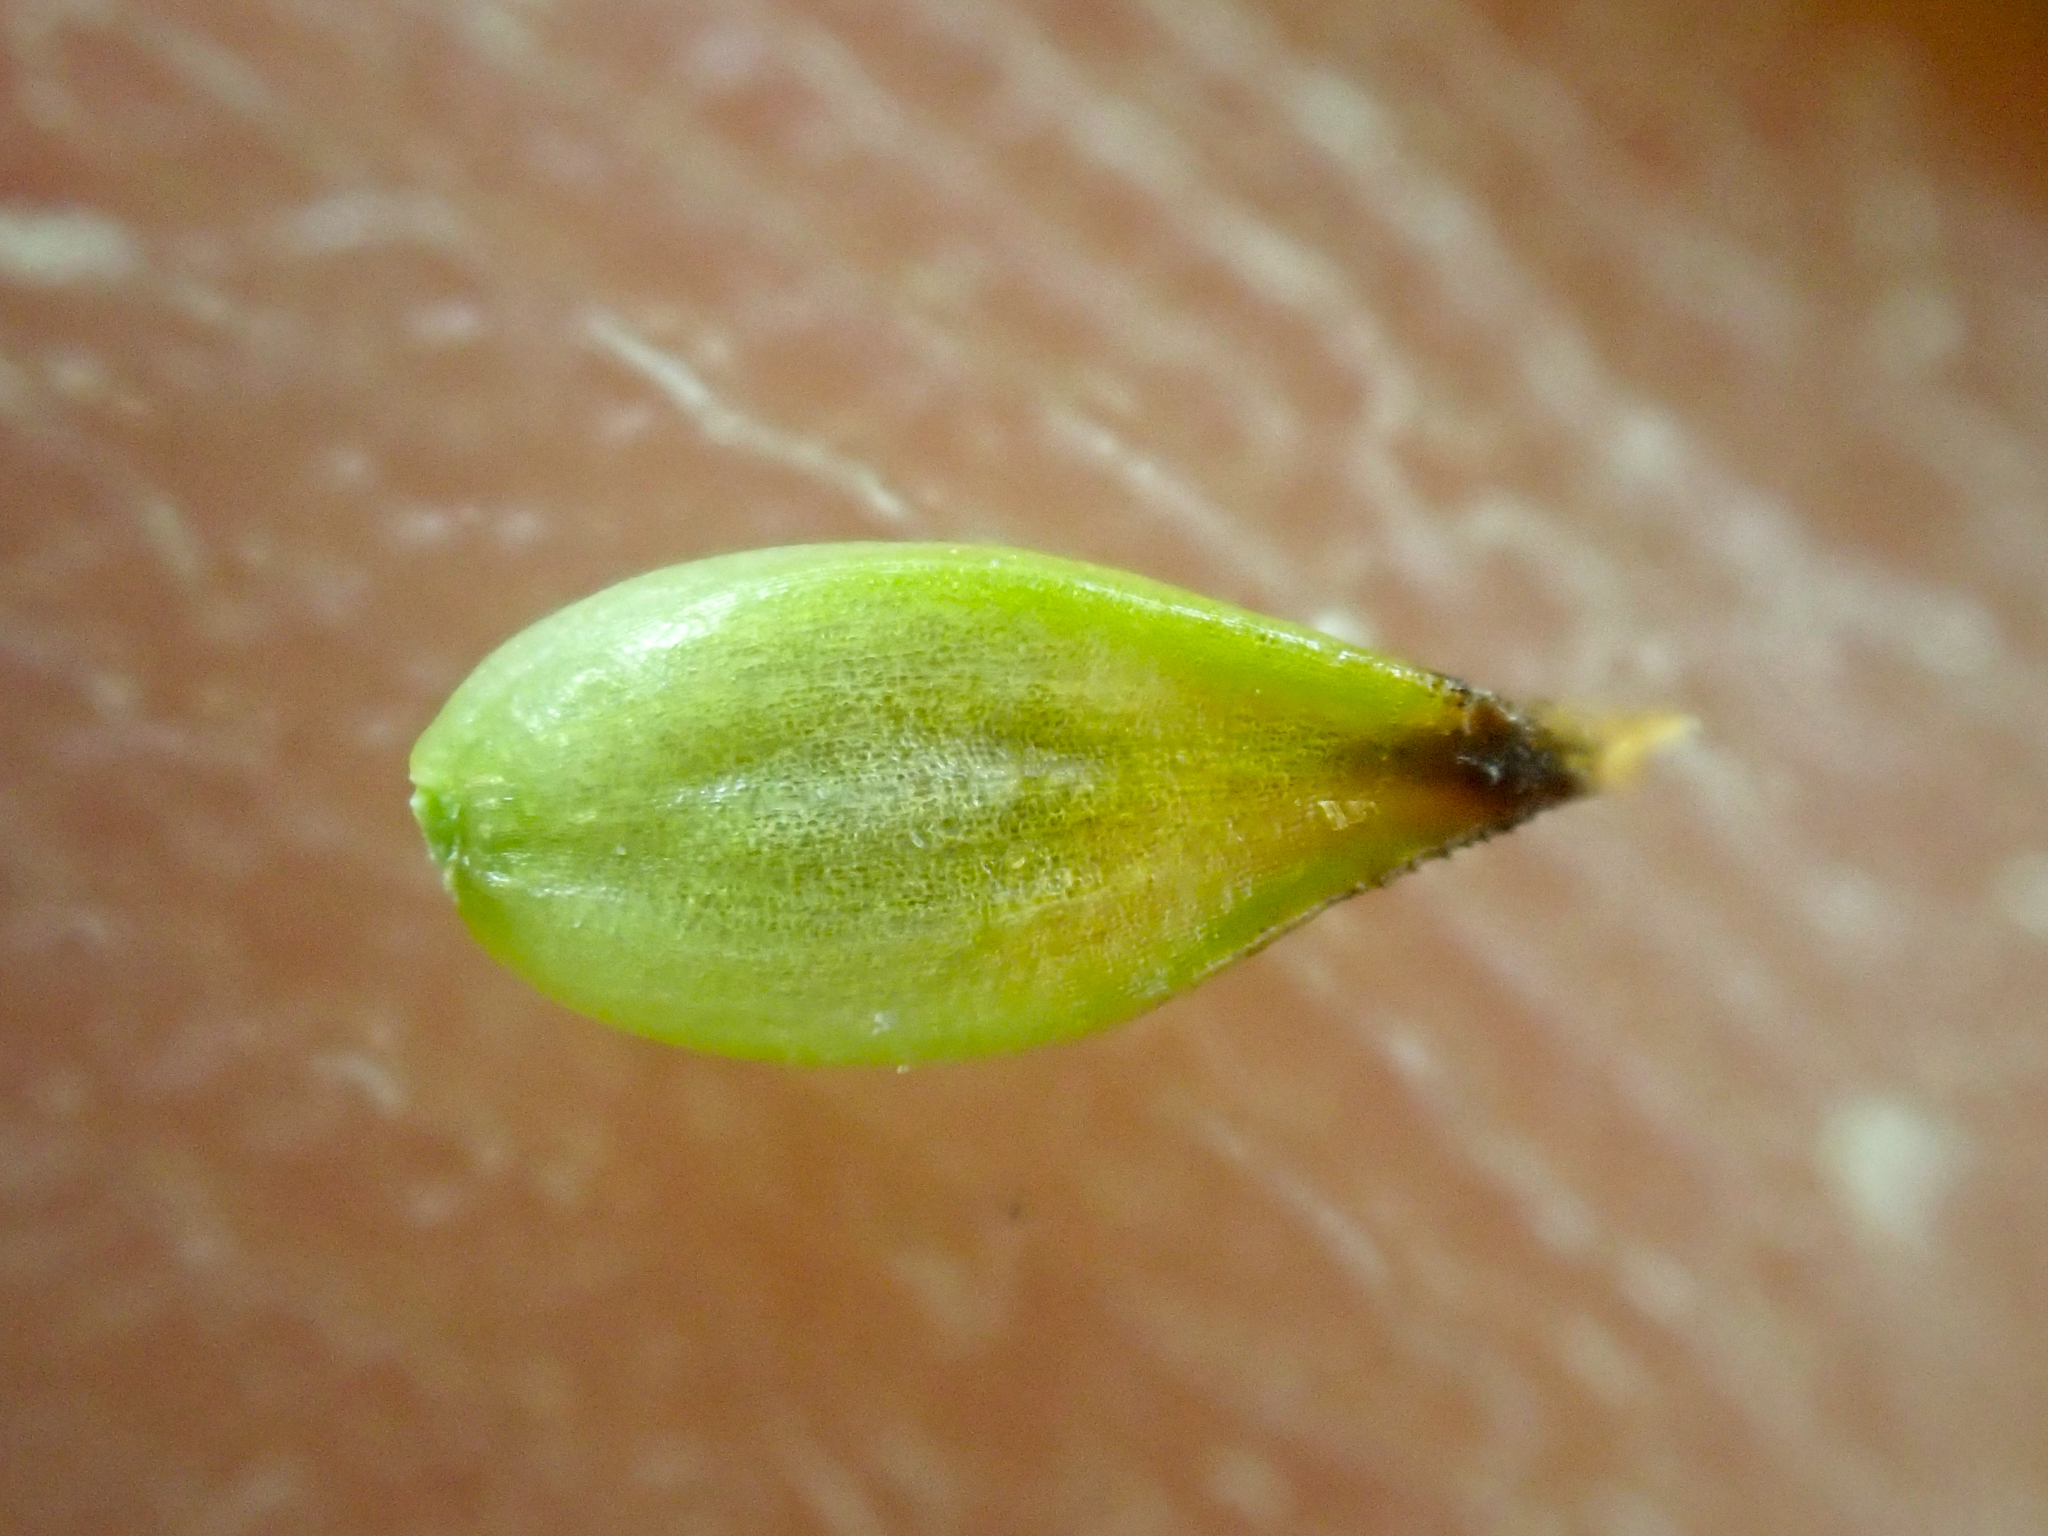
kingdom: Plantae
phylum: Tracheophyta
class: Liliopsida
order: Poales
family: Cyperaceae
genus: Carex
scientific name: Carex incurviformis
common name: Coastal sand sedge
